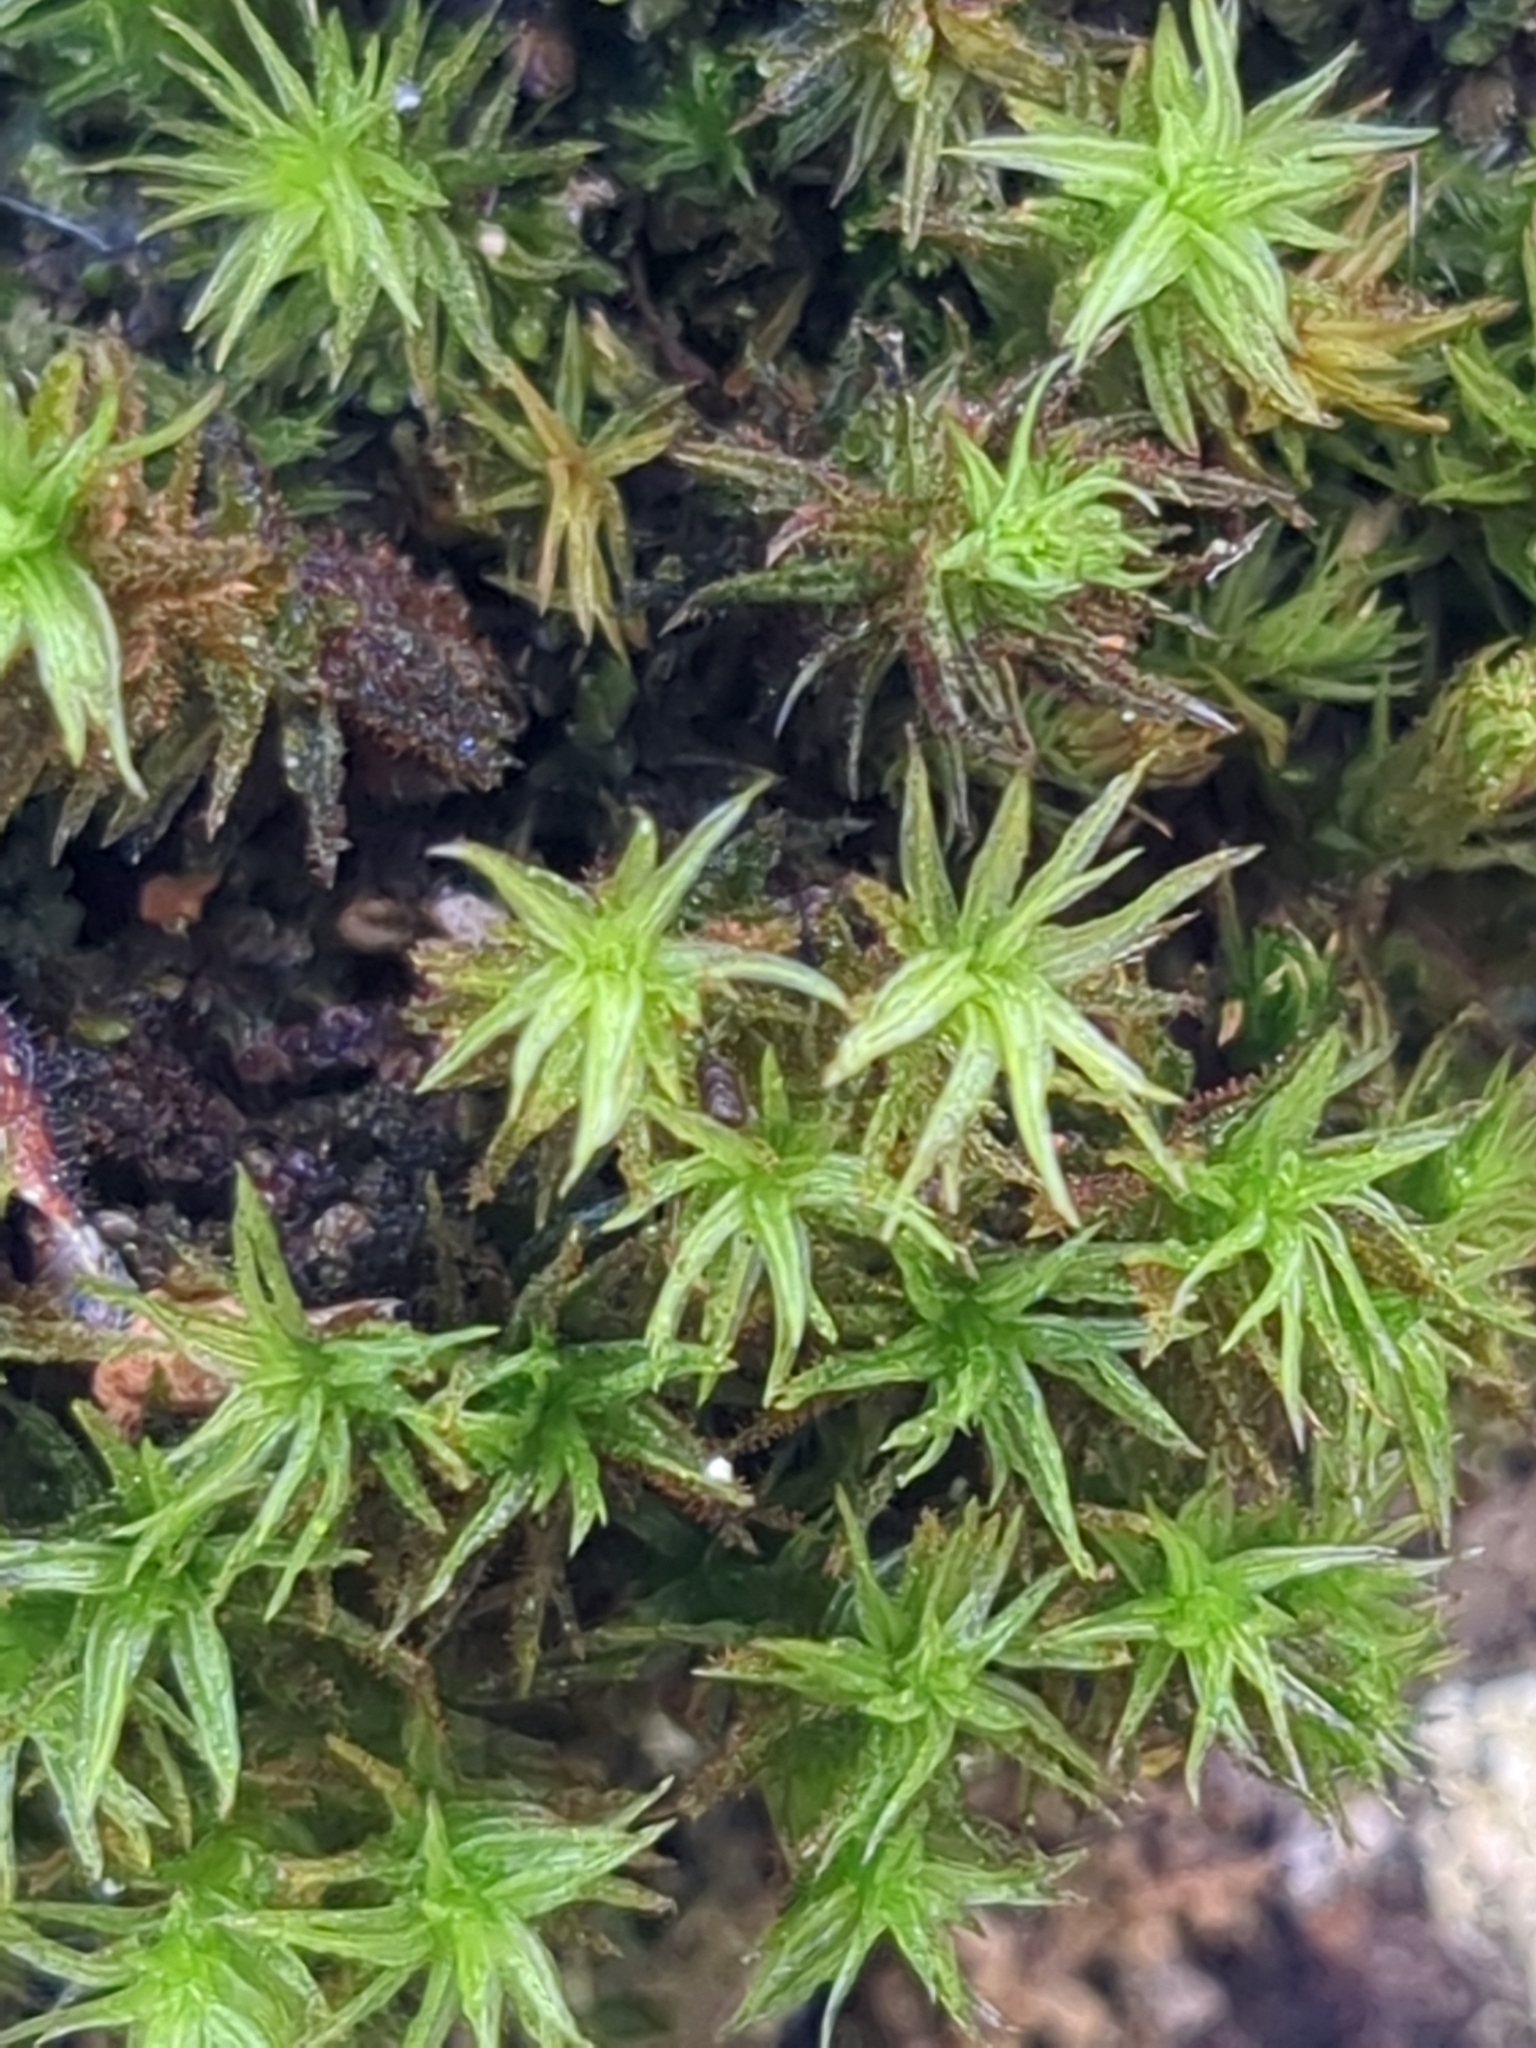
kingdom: Plantae
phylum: Bryophyta
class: Bryopsida
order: Orthotrichales
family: Orthotrichaceae
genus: Pulvigera
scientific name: Pulvigera lyellii
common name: Lyell's bristle-moss
